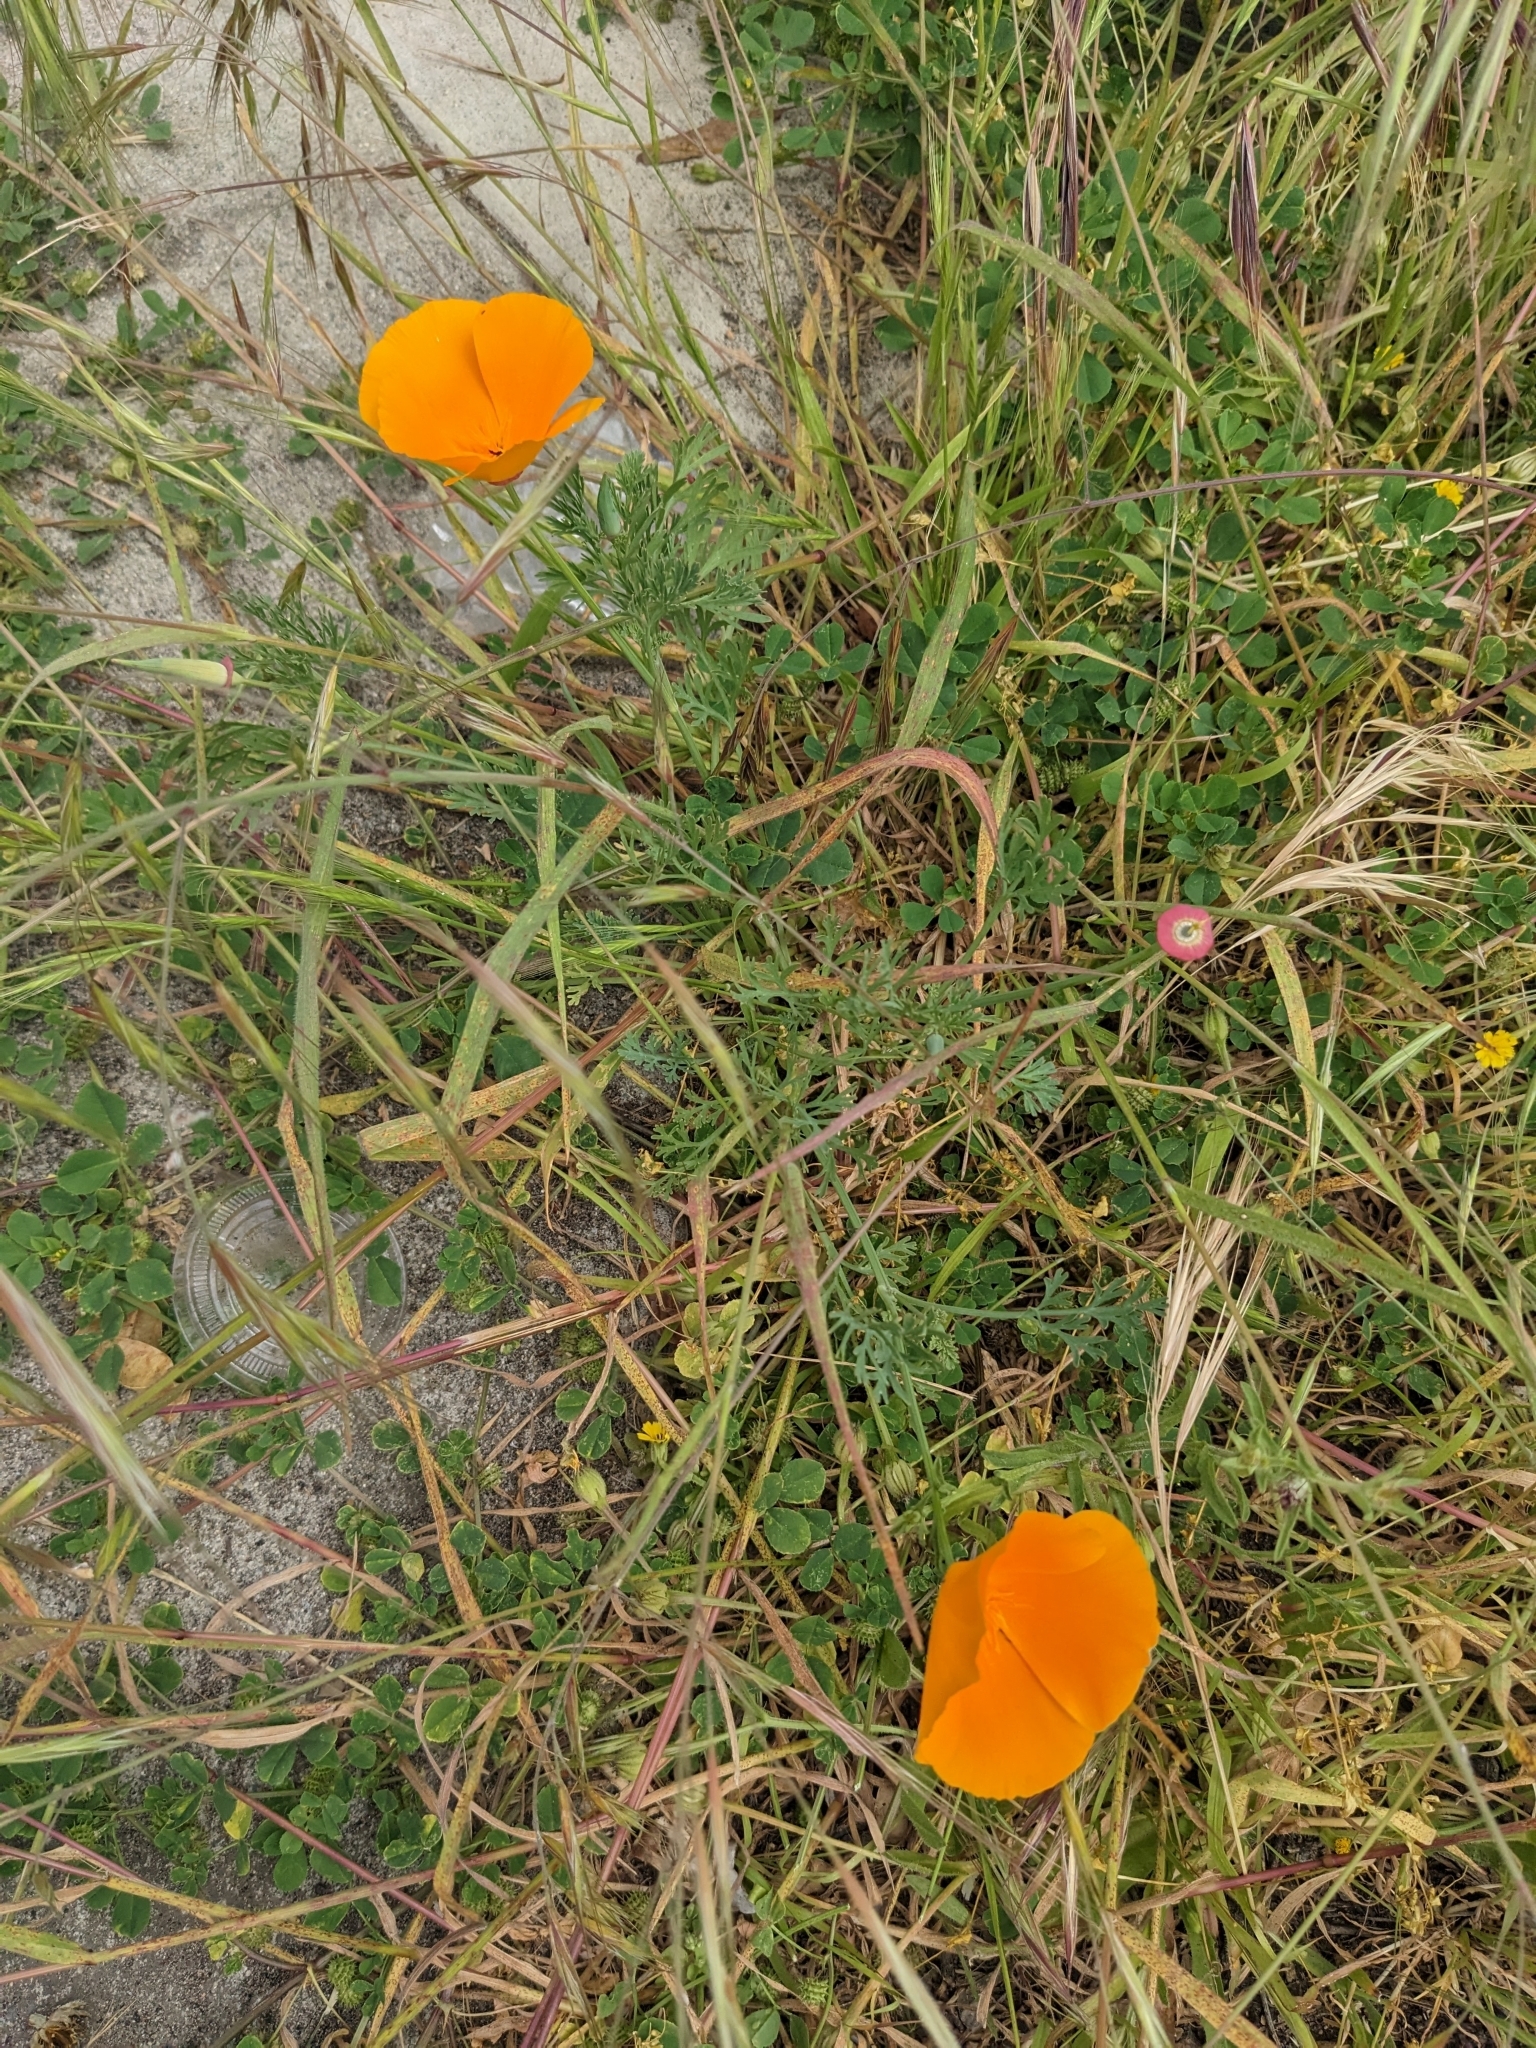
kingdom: Plantae
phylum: Tracheophyta
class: Magnoliopsida
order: Ranunculales
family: Papaveraceae
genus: Eschscholzia
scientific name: Eschscholzia californica
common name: California poppy
